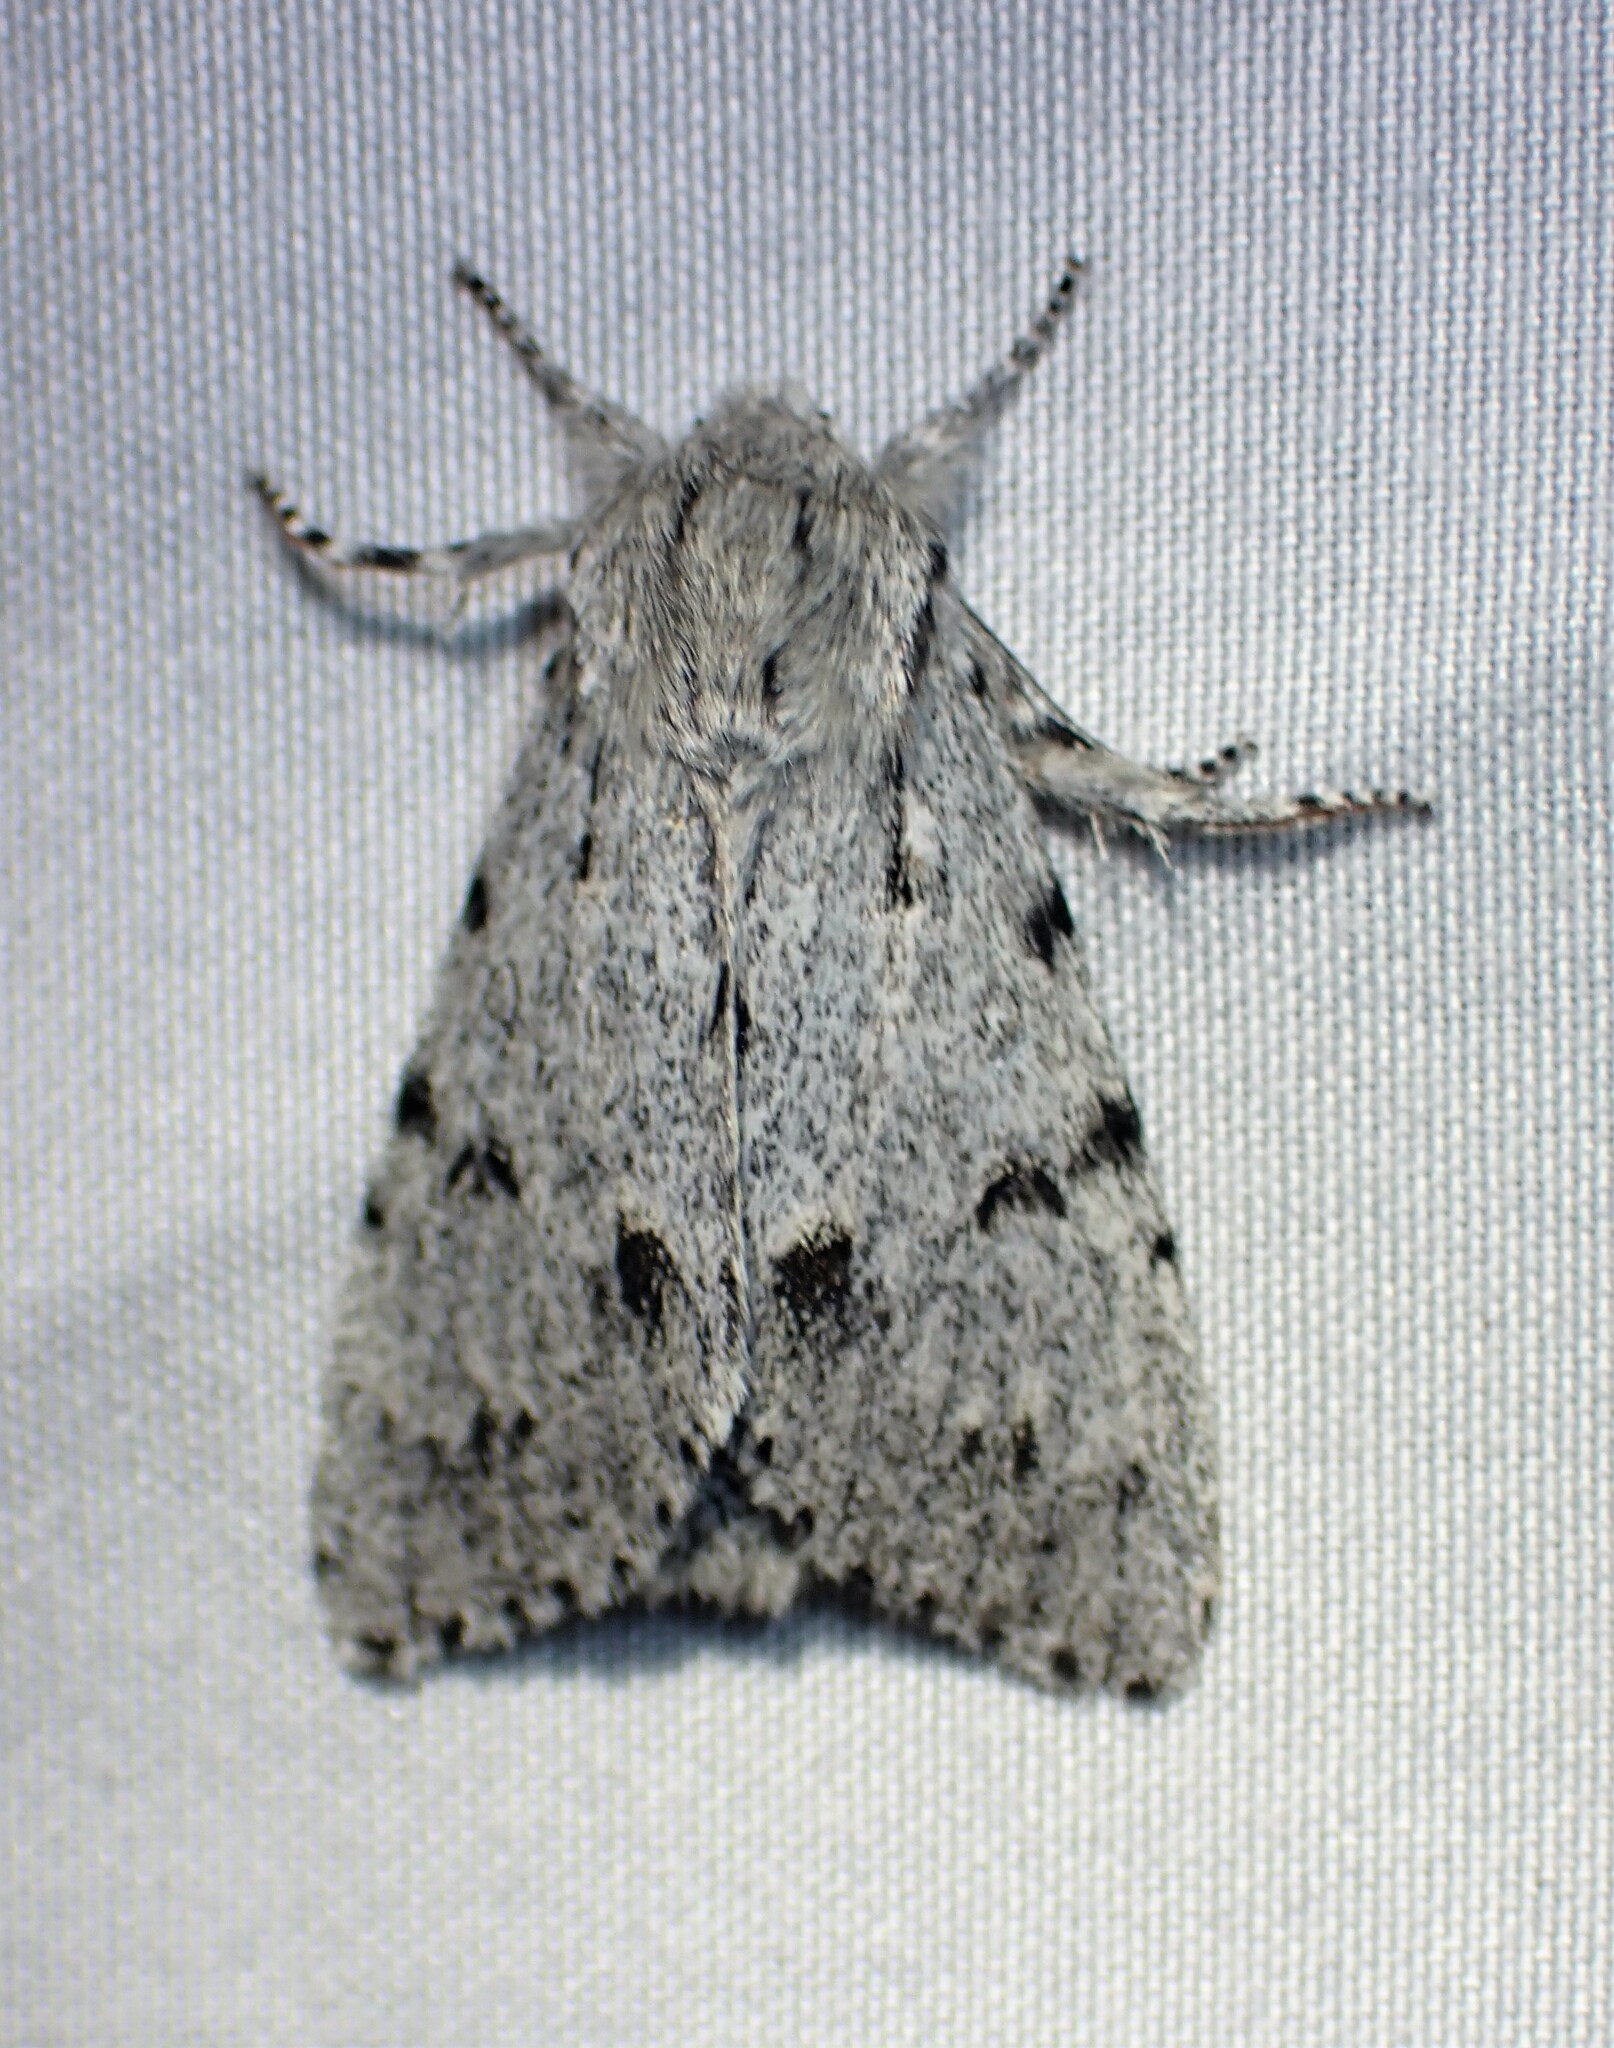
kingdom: Animalia
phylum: Arthropoda
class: Insecta
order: Lepidoptera
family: Noctuidae
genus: Acronicta
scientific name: Acronicta lepusculina
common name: Cottonwood dagger
